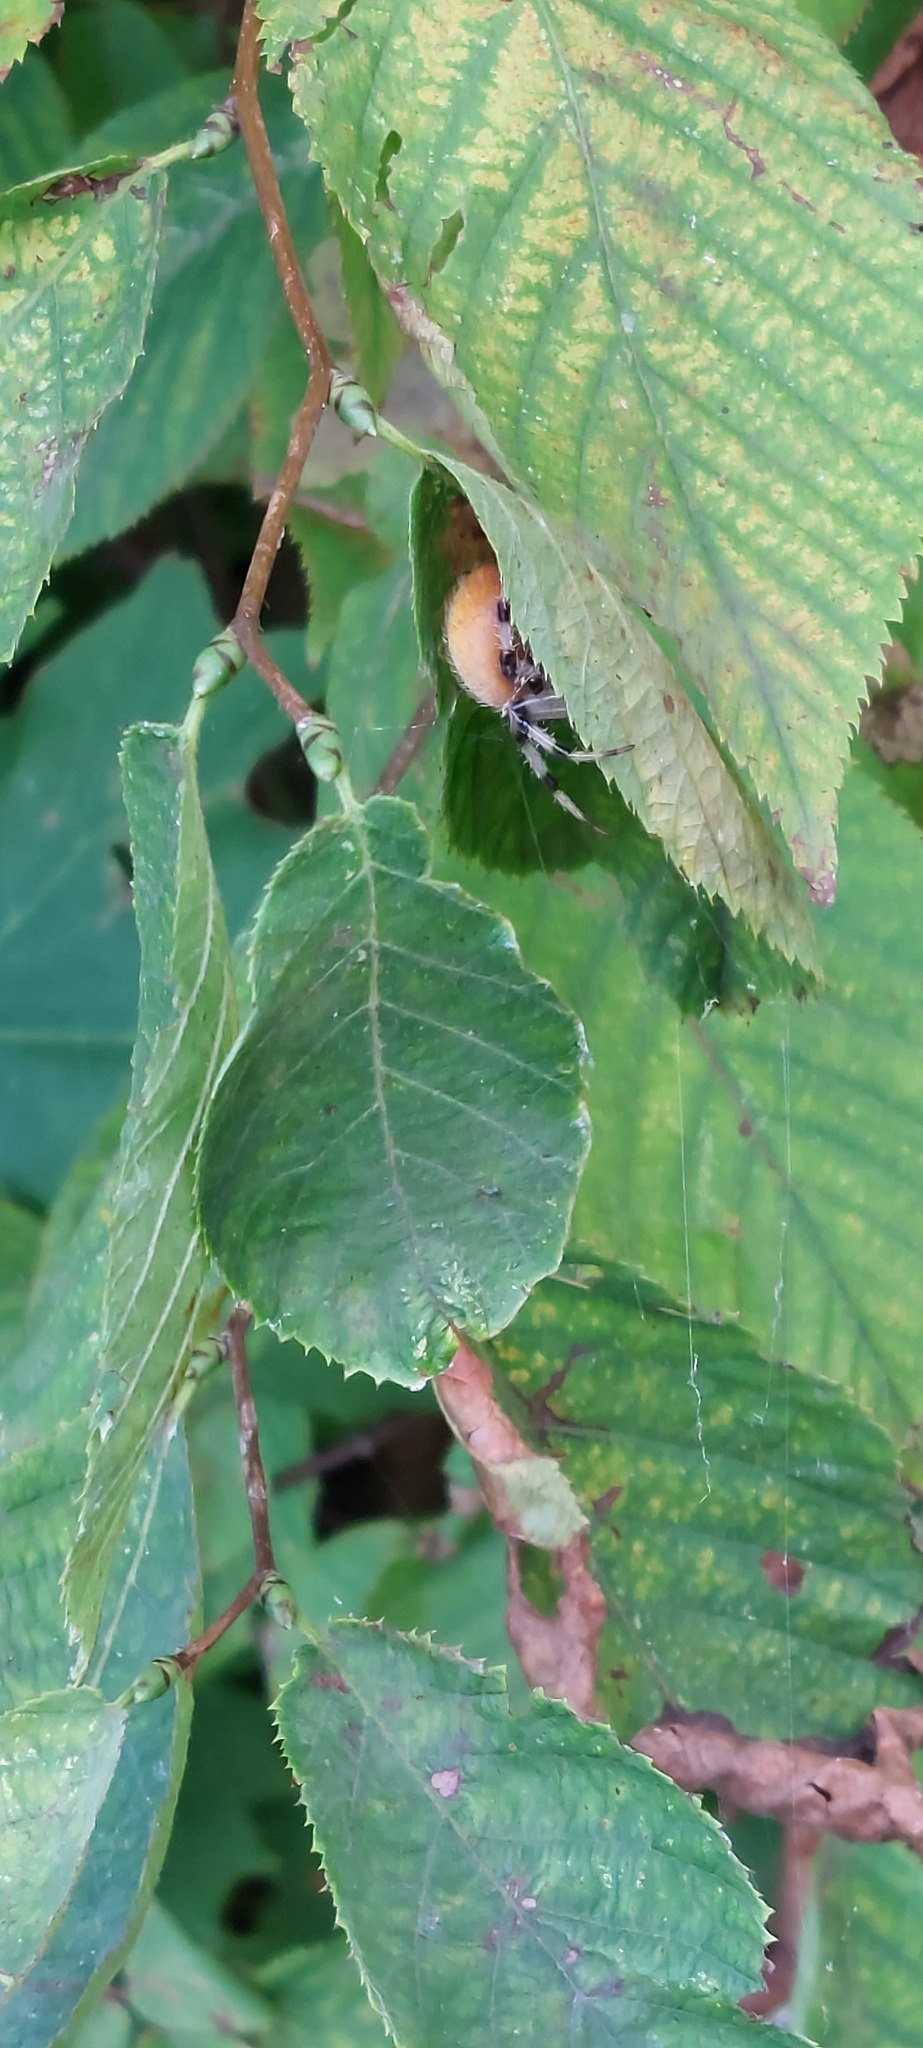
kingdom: Animalia
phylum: Arthropoda
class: Arachnida
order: Araneae
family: Araneidae
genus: Araneus
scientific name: Araneus trifolium
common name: Shamrock orbweaver
